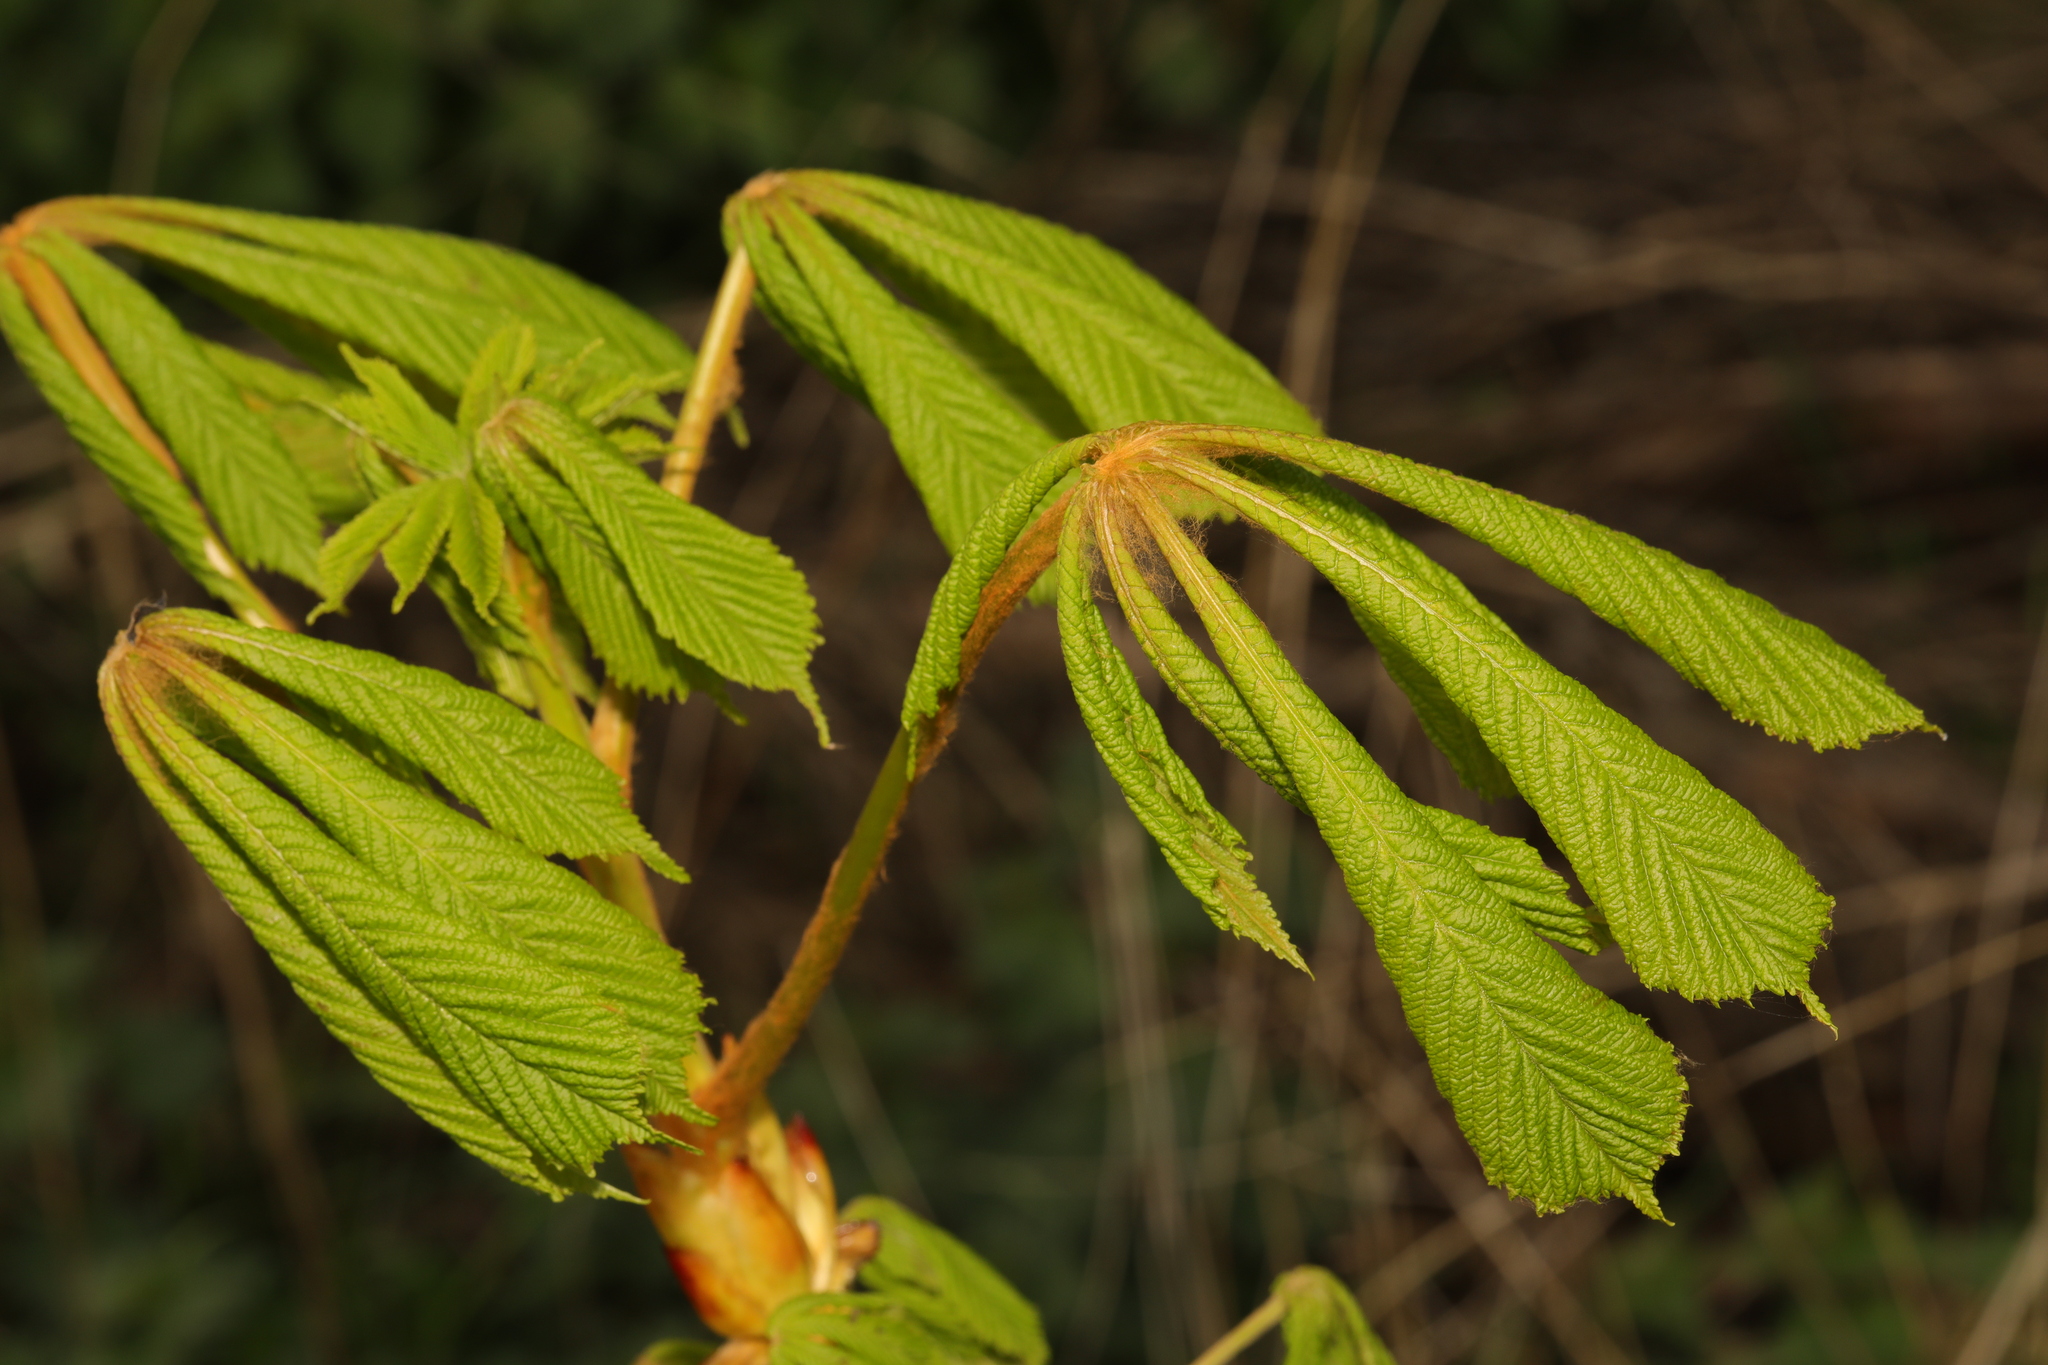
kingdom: Plantae
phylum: Tracheophyta
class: Magnoliopsida
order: Sapindales
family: Sapindaceae
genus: Aesculus
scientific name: Aesculus hippocastanum
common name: Horse-chestnut
